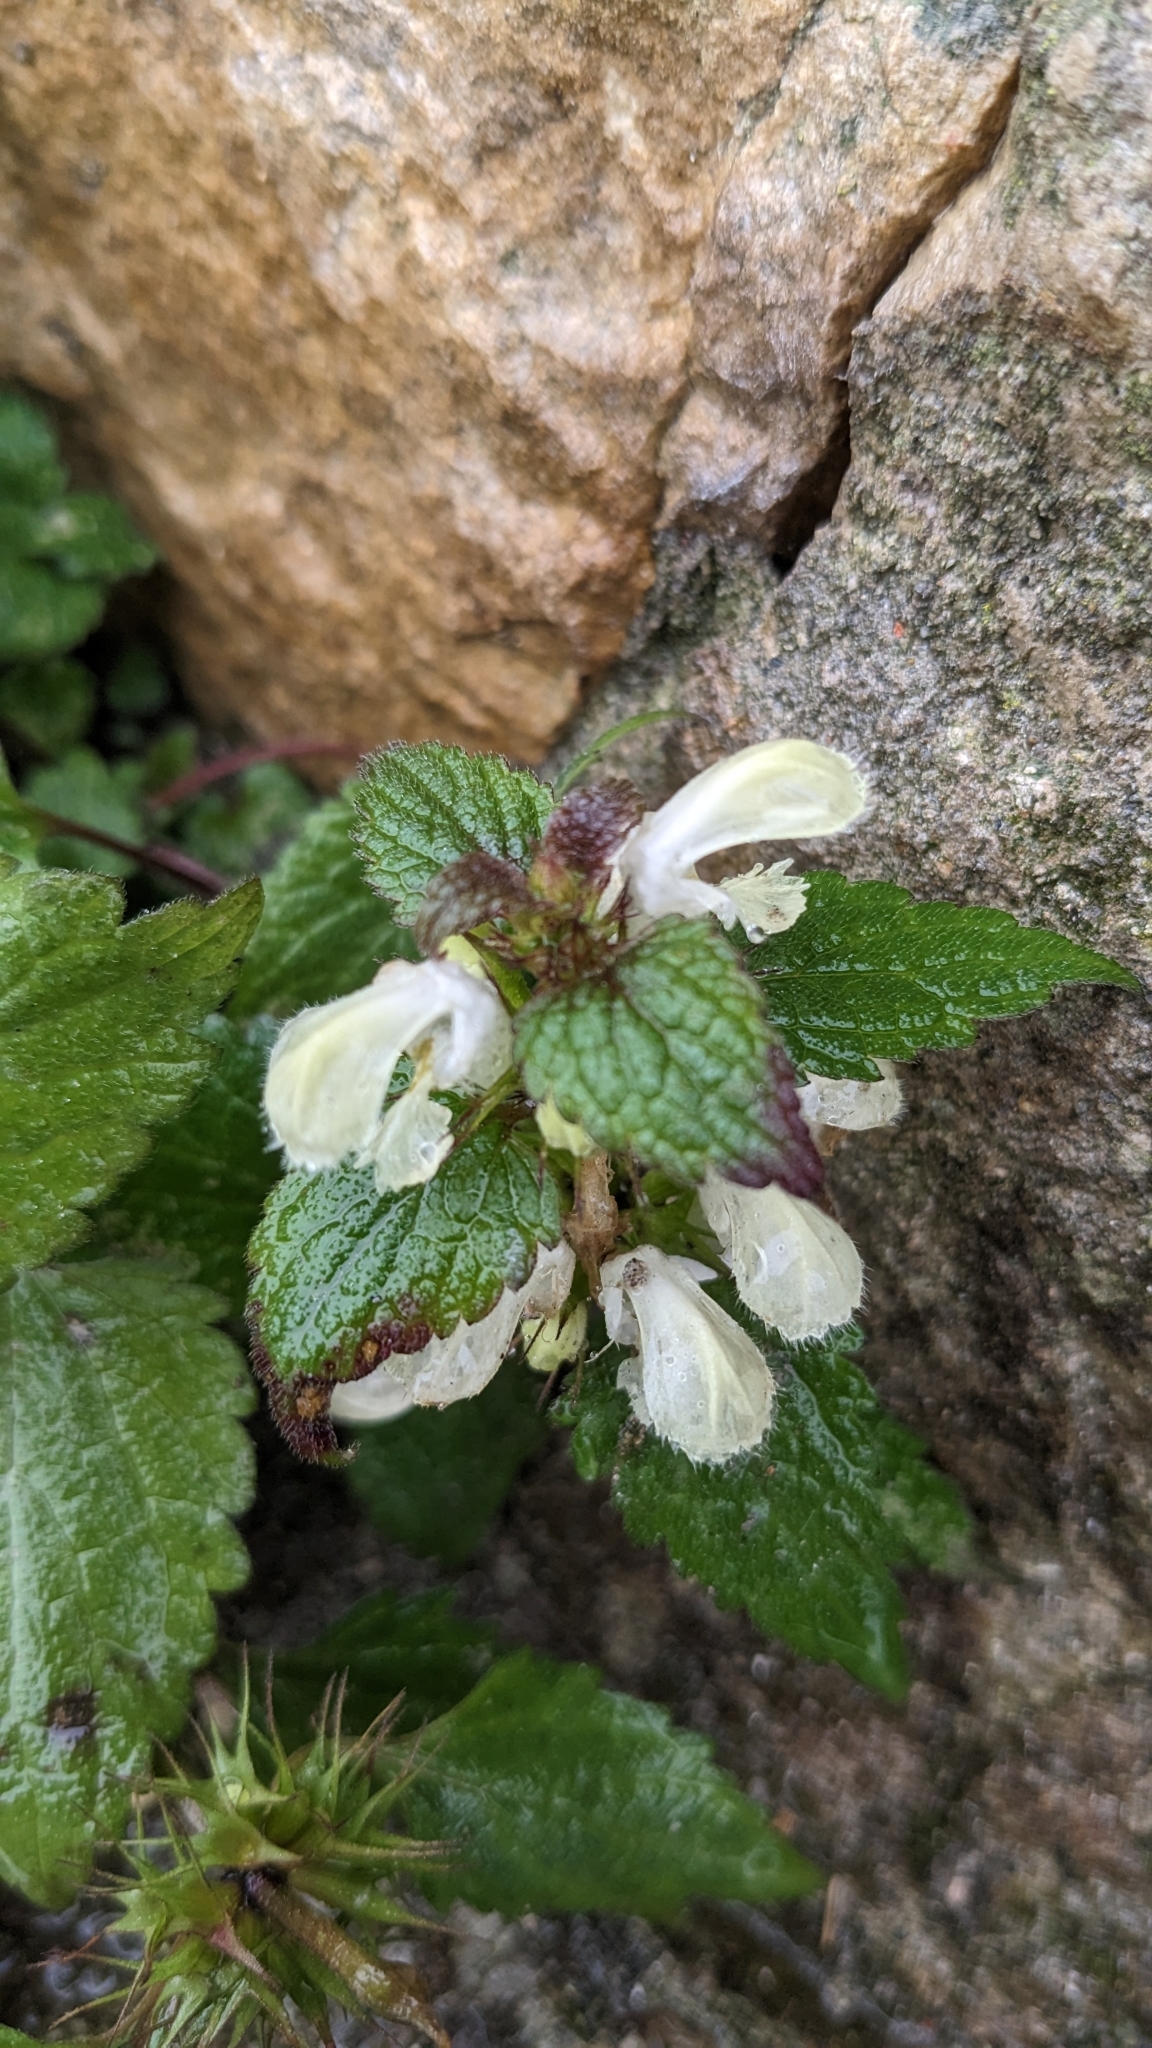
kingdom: Plantae
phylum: Tracheophyta
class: Magnoliopsida
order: Lamiales
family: Lamiaceae
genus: Lamium
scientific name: Lamium album
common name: White dead-nettle
